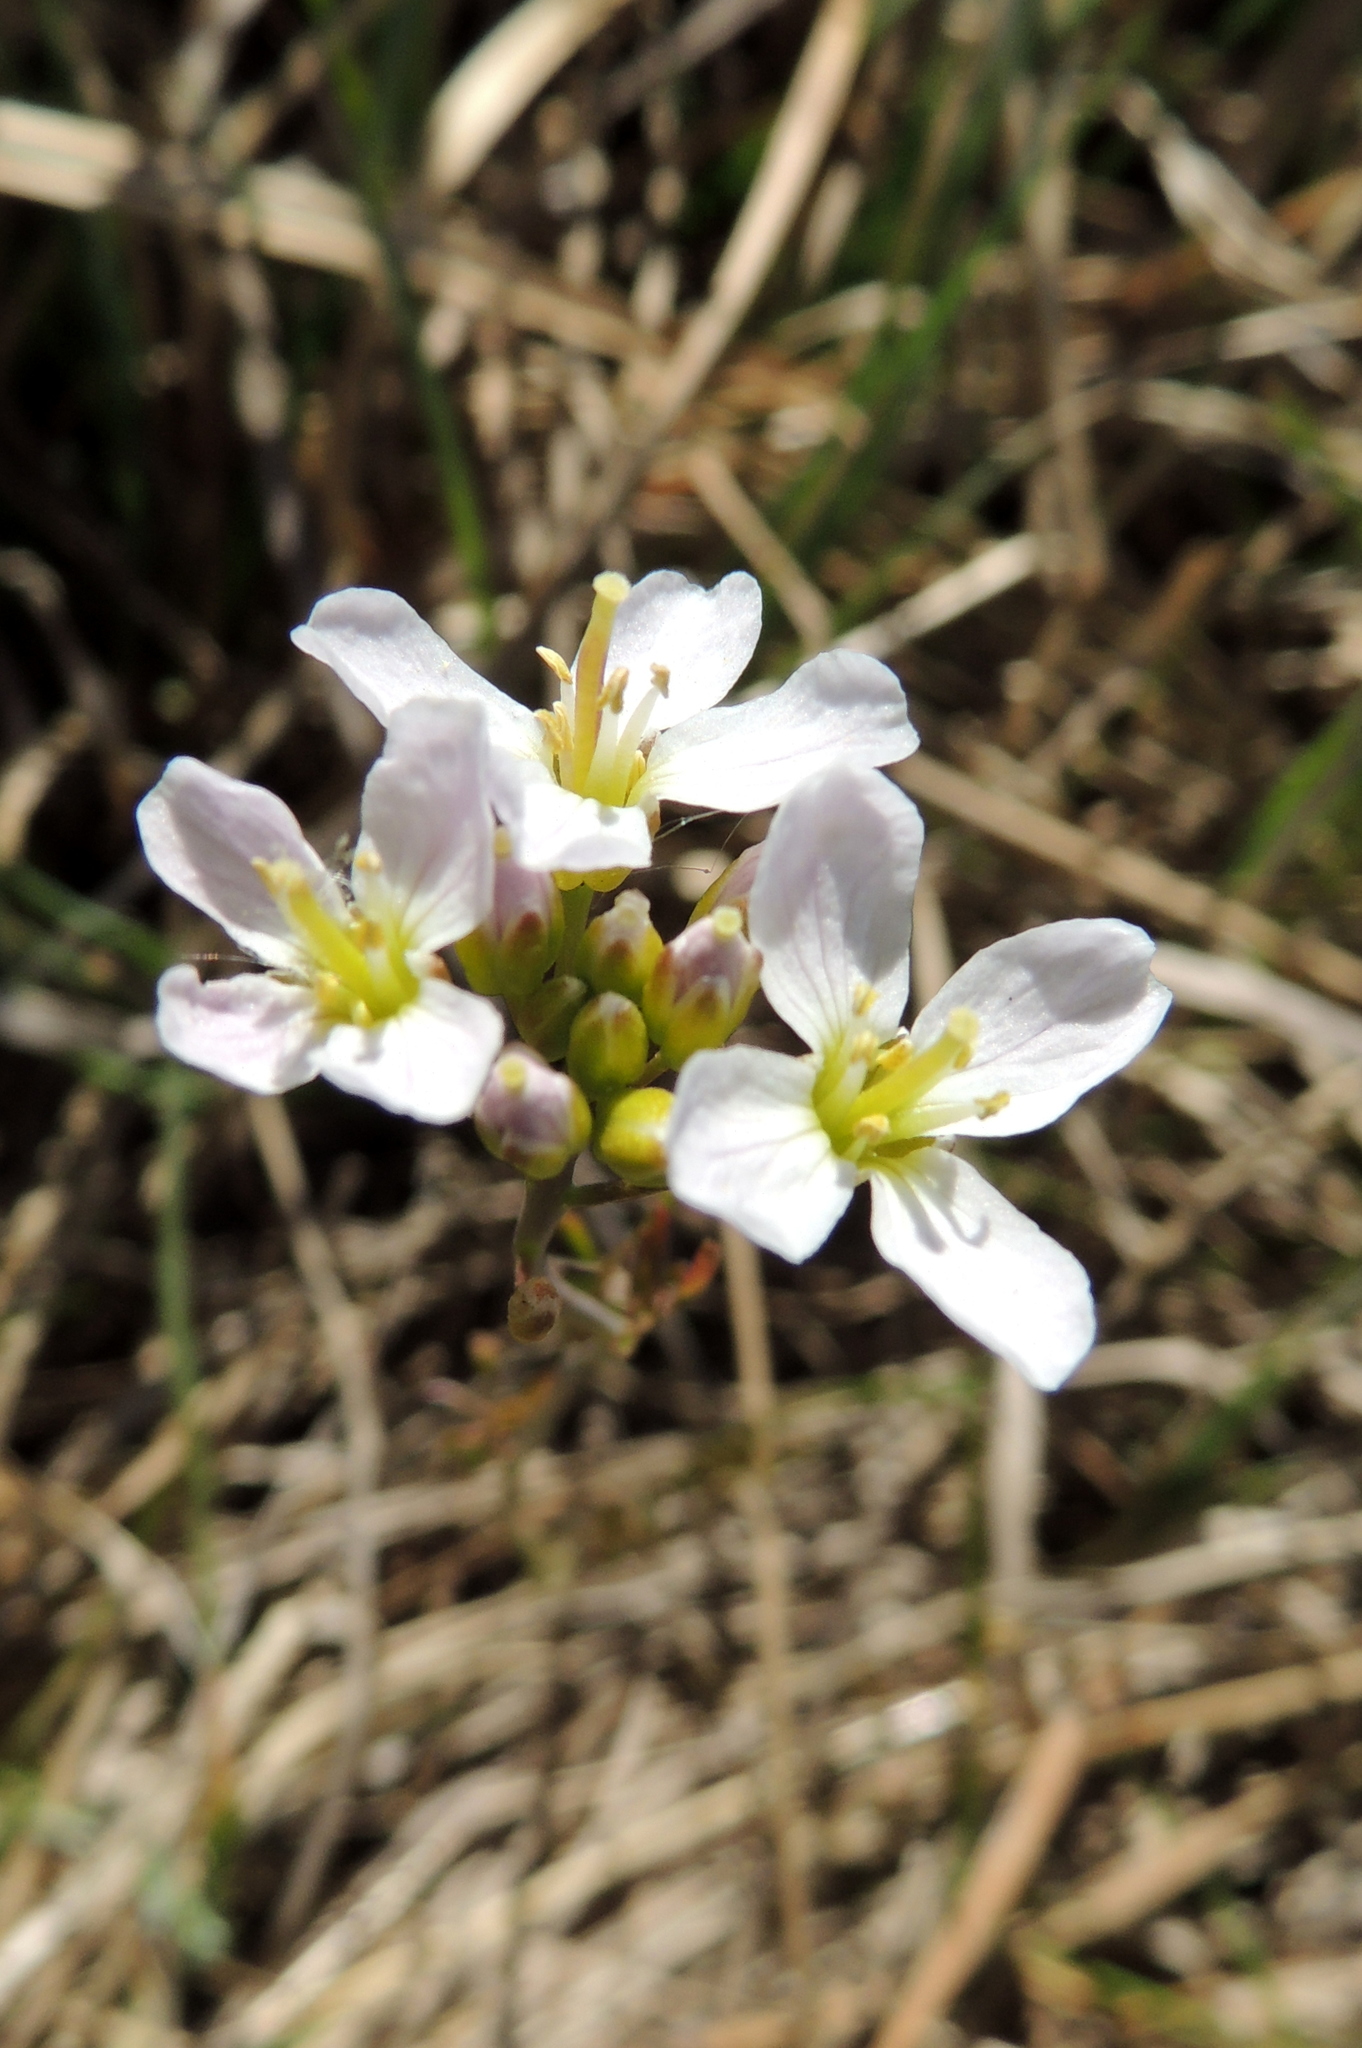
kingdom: Plantae
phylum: Tracheophyta
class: Magnoliopsida
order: Brassicales
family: Brassicaceae
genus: Cardamine
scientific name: Cardamine dentata
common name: Toothed bittercress
